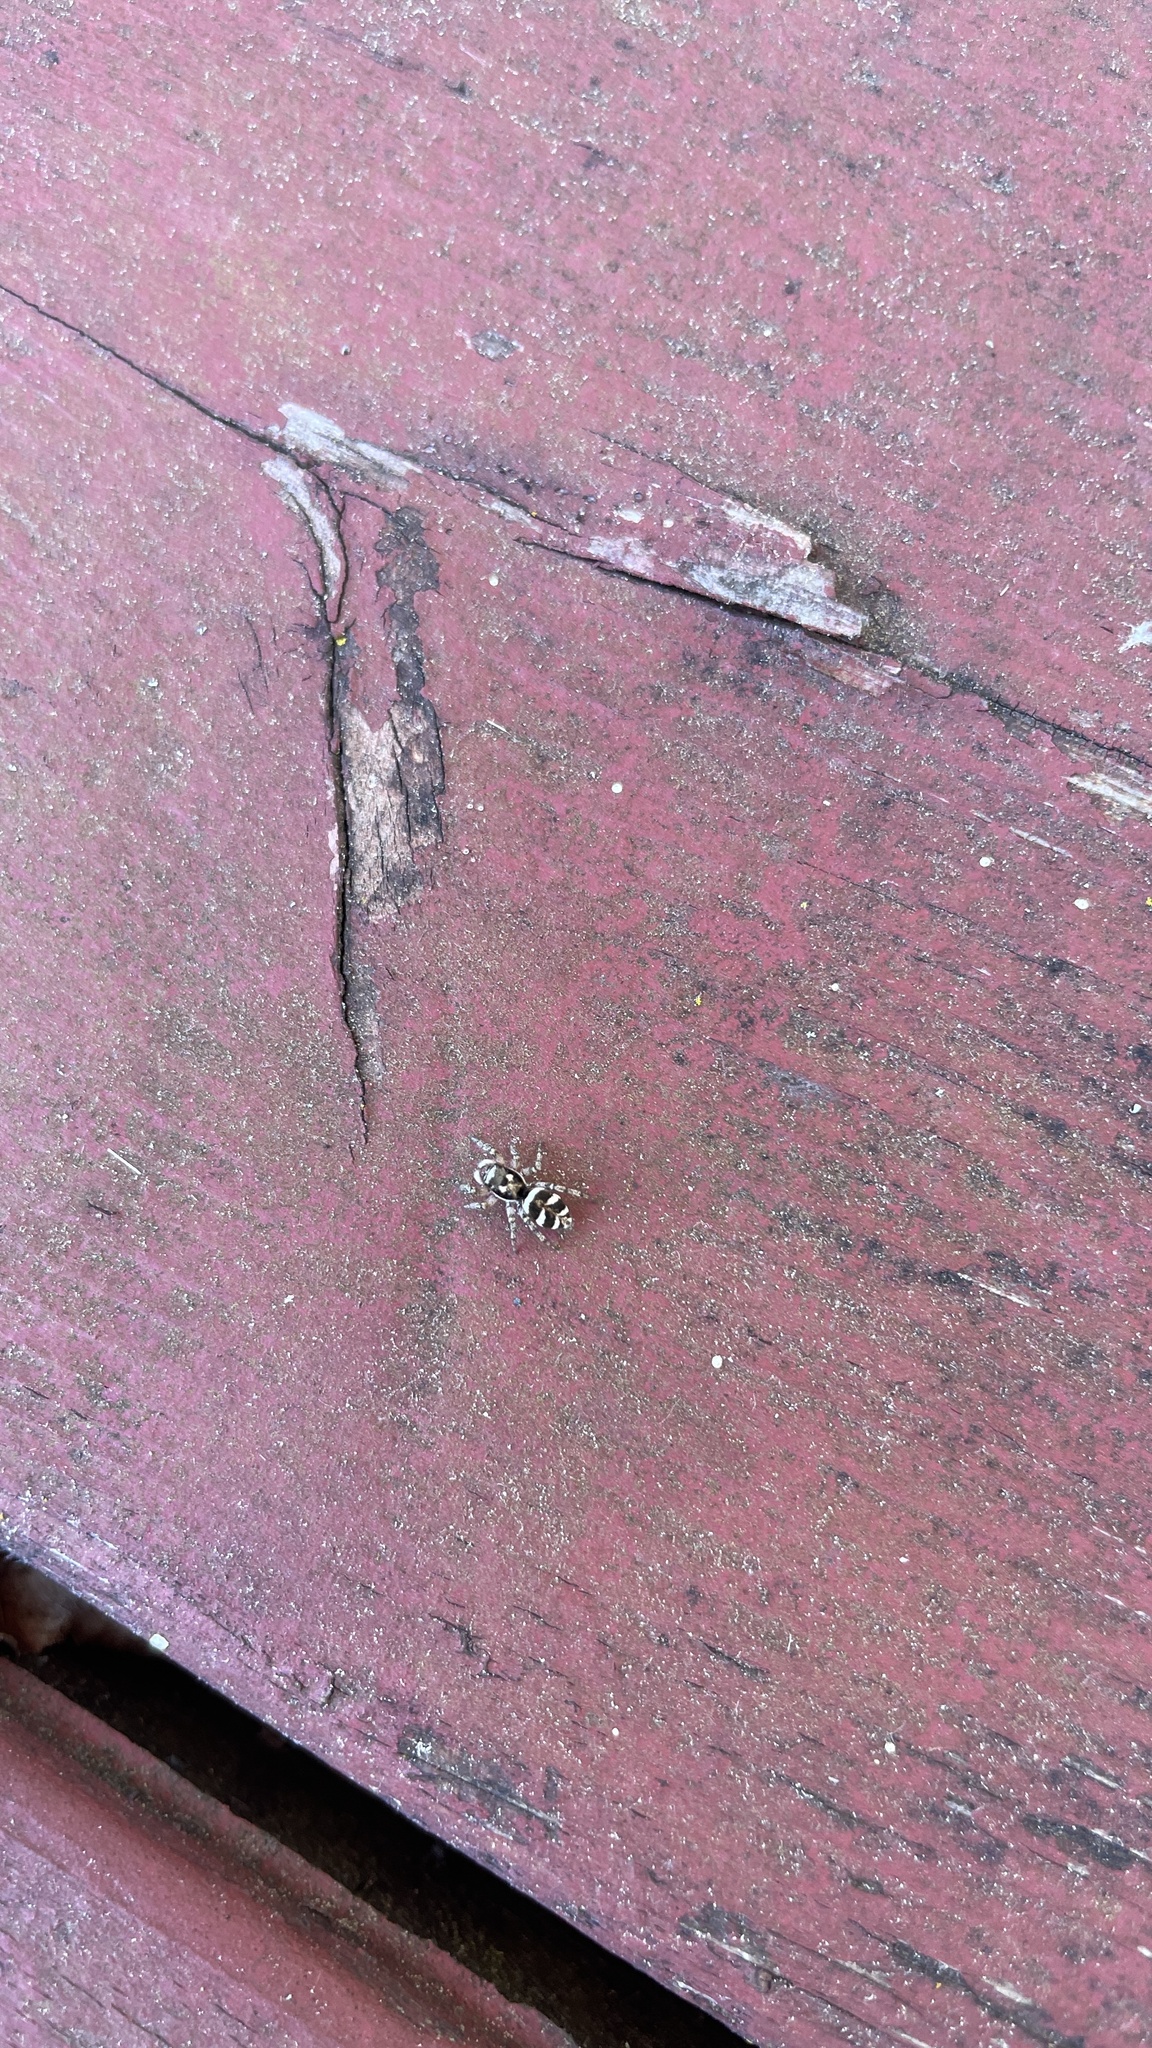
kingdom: Animalia
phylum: Arthropoda
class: Arachnida
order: Araneae
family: Salticidae
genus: Salticus
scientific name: Salticus scenicus
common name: Zebra jumper
